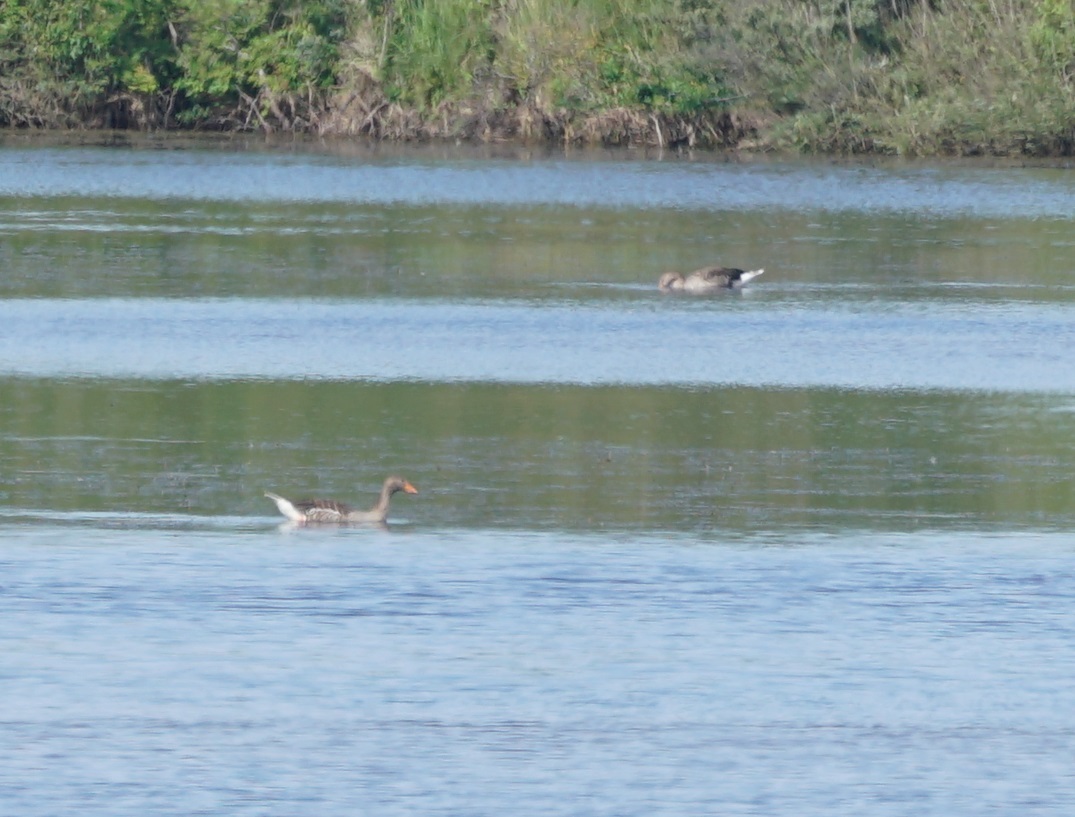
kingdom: Animalia
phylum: Chordata
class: Aves
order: Anseriformes
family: Anatidae
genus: Anser
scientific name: Anser anser
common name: Greylag goose
